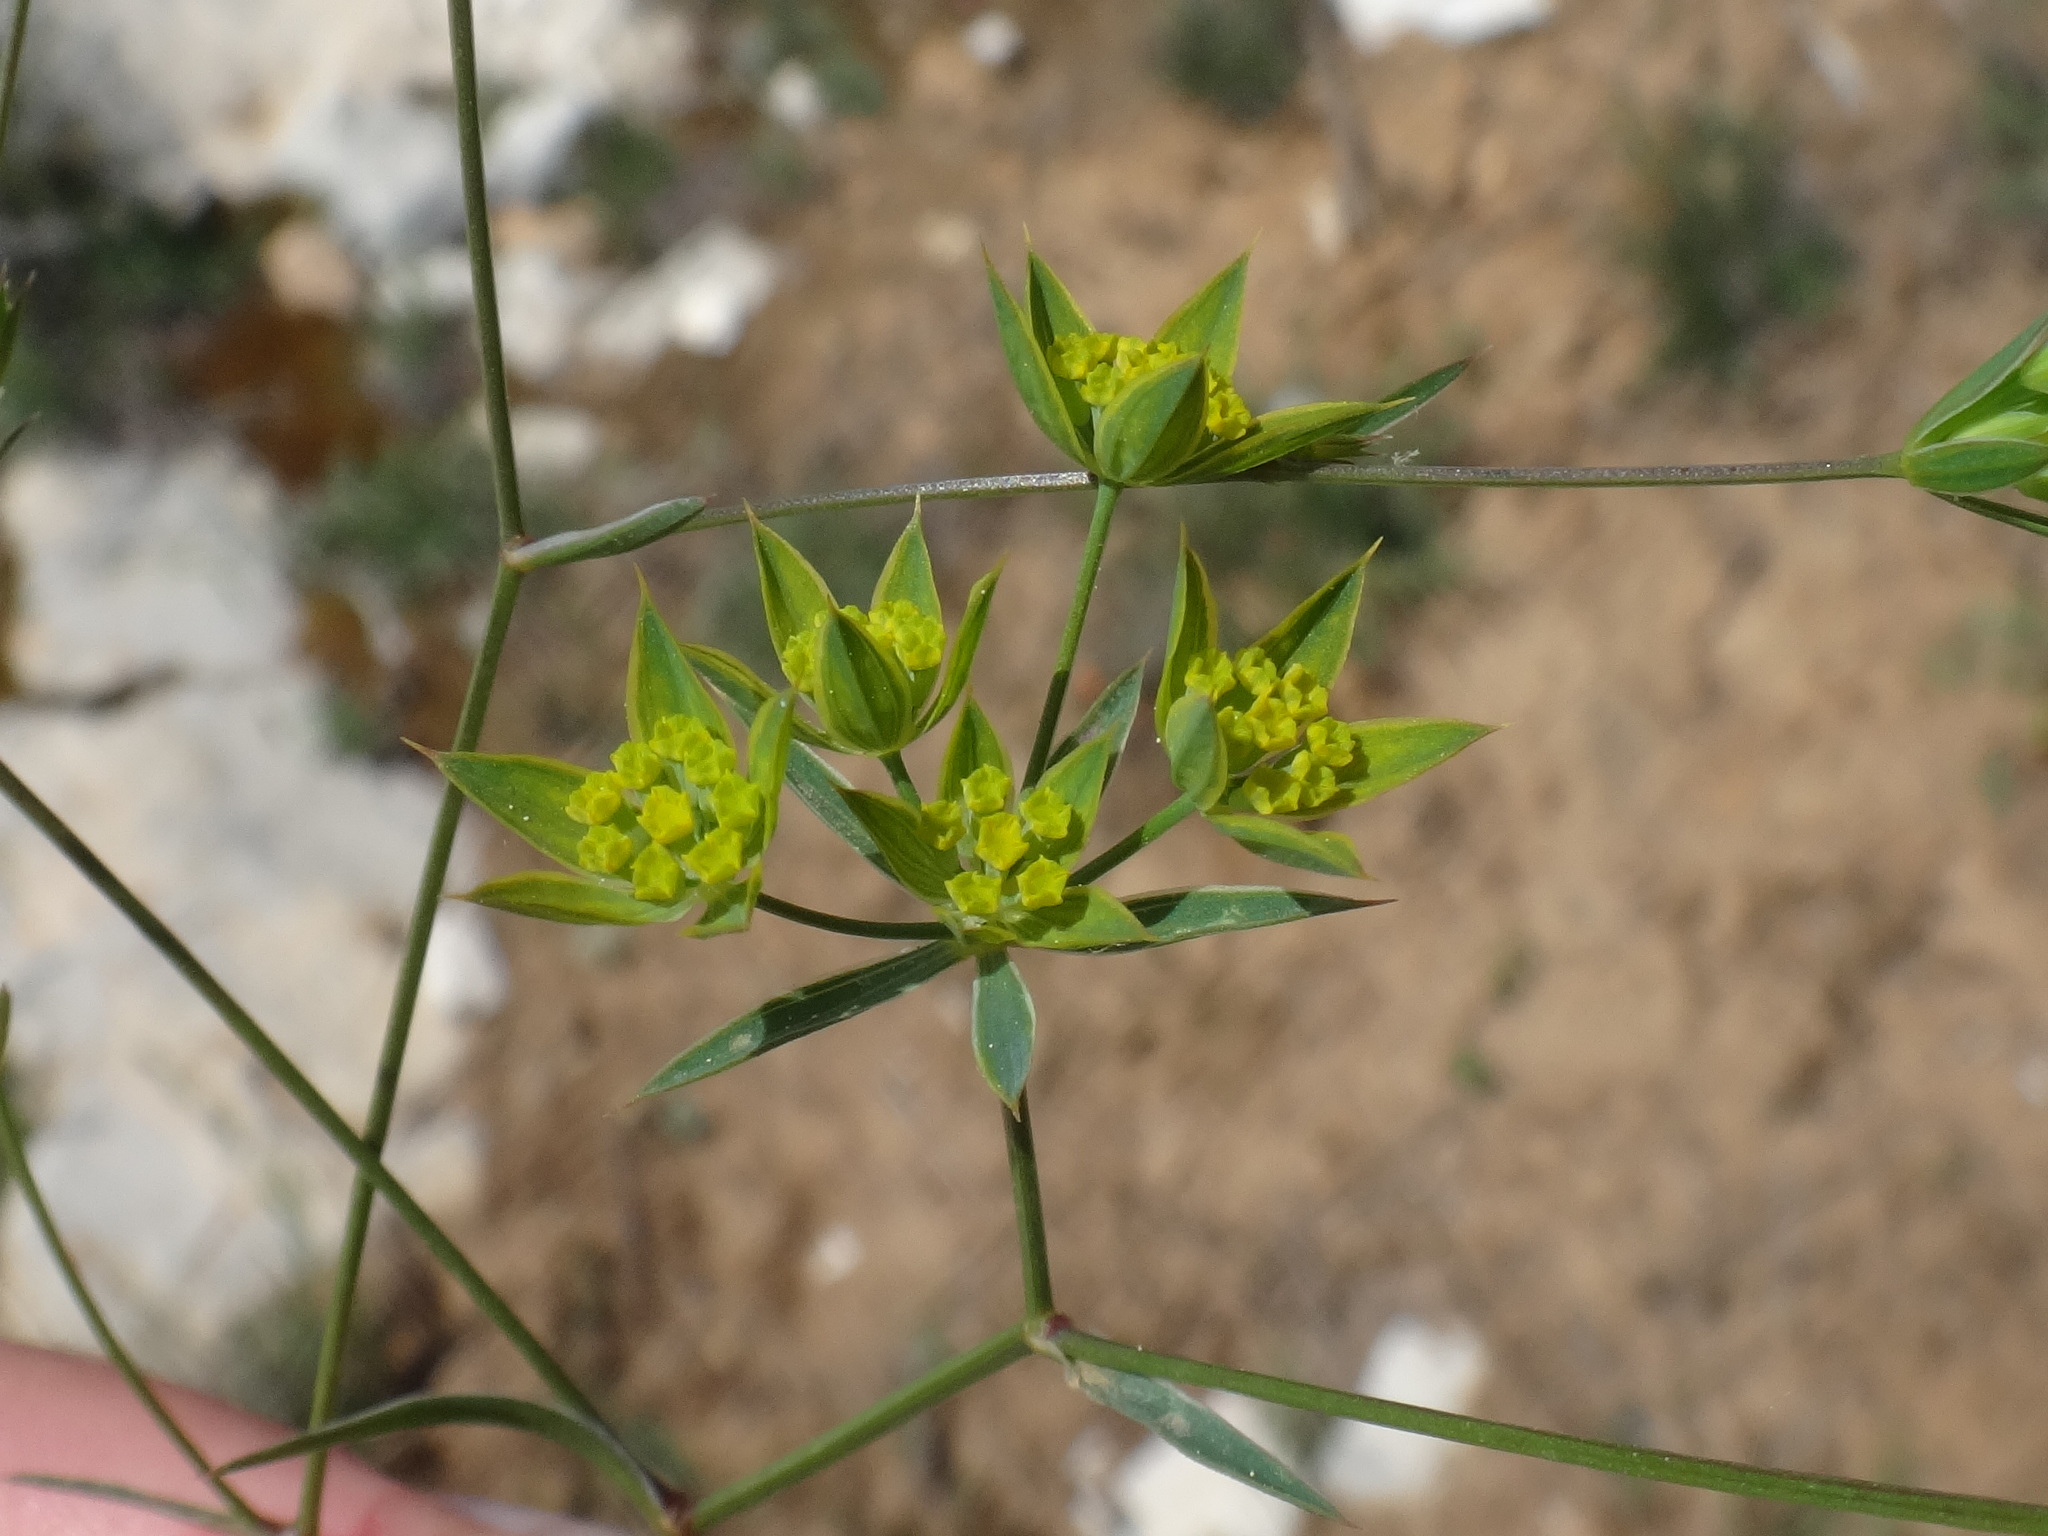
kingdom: Plantae
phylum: Tracheophyta
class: Magnoliopsida
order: Apiales
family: Apiaceae
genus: Bupleurum
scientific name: Bupleurum veronense
